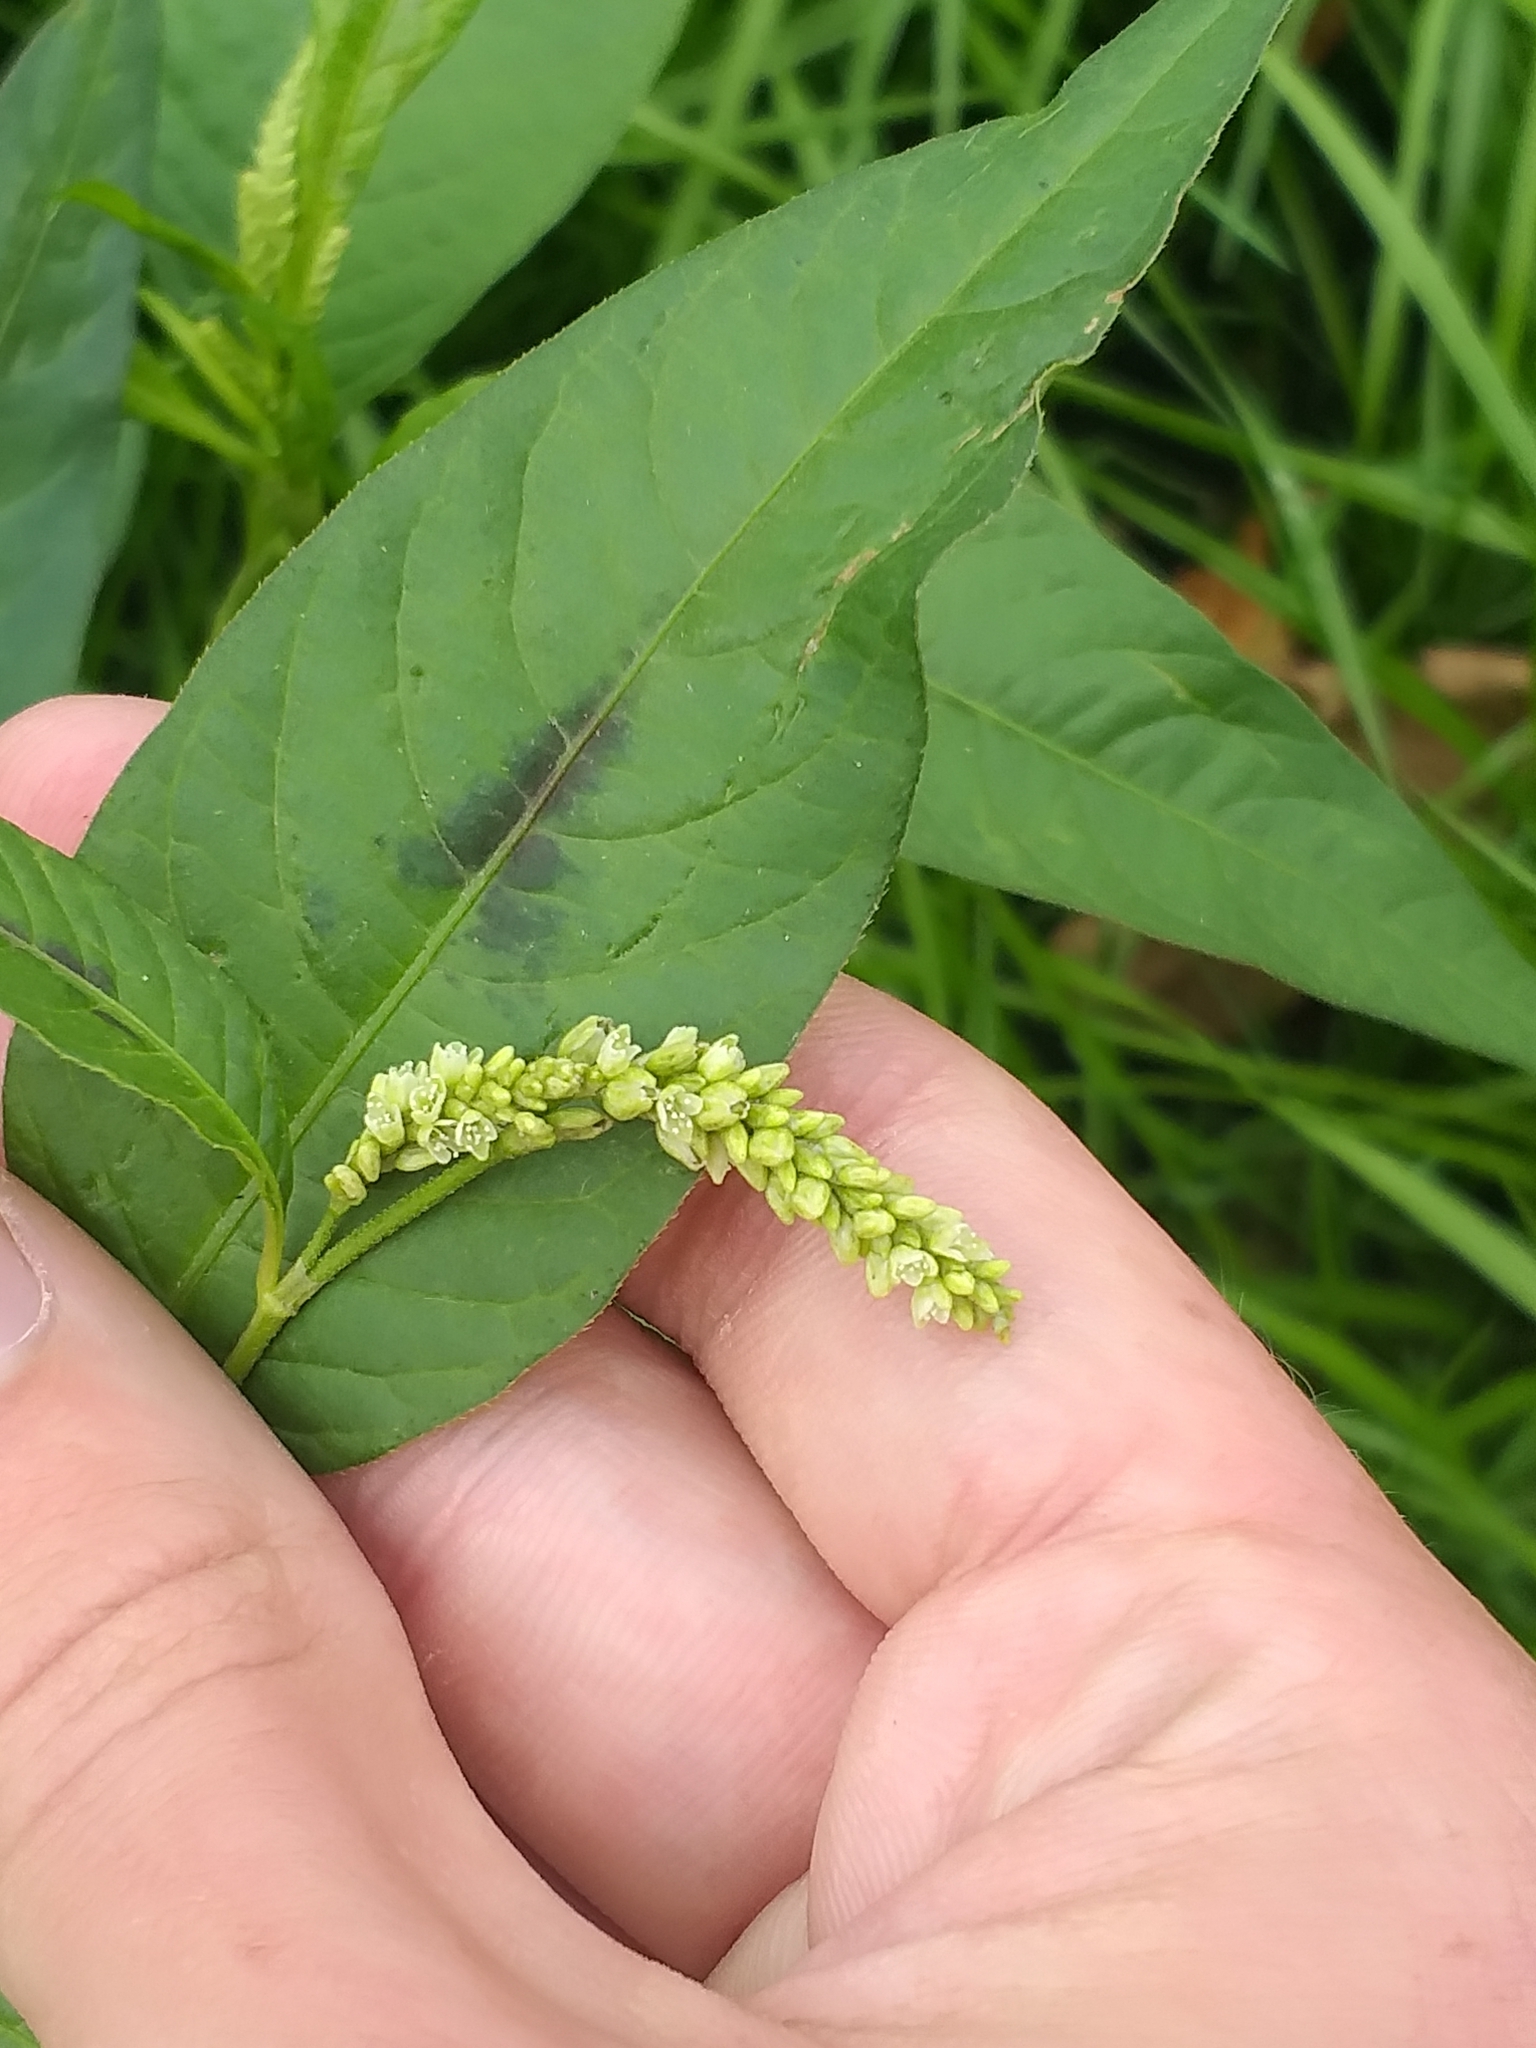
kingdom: Plantae
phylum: Tracheophyta
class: Magnoliopsida
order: Caryophyllales
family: Polygonaceae
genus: Persicaria
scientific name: Persicaria lapathifolia
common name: Curlytop knotweed
